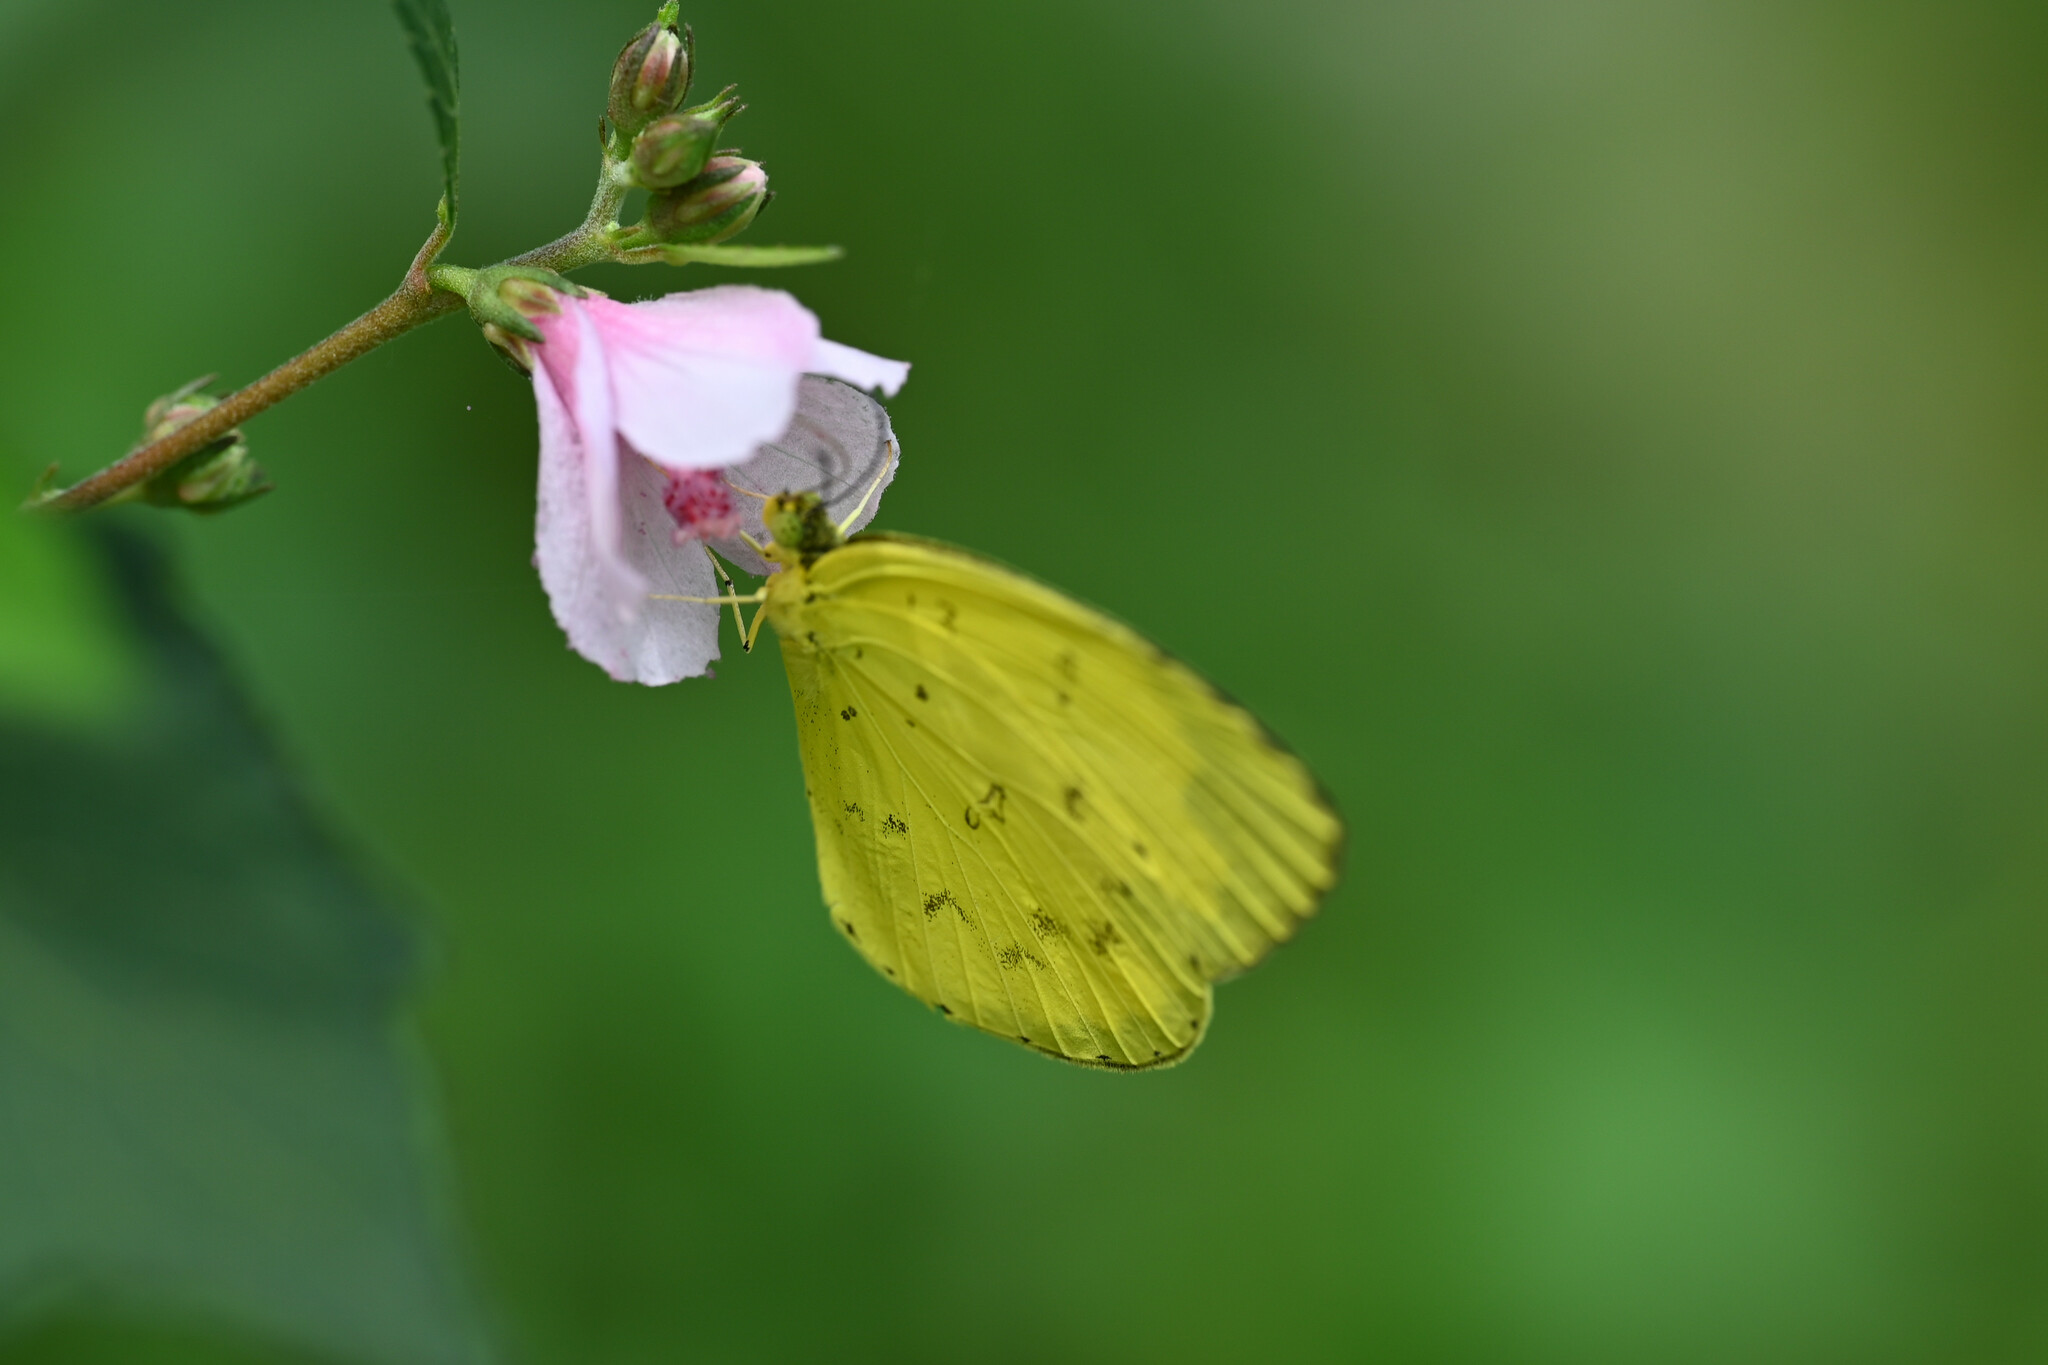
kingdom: Animalia
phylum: Arthropoda
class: Insecta
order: Lepidoptera
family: Pieridae
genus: Eurema
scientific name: Eurema hecabe
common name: Pale grass yellow
